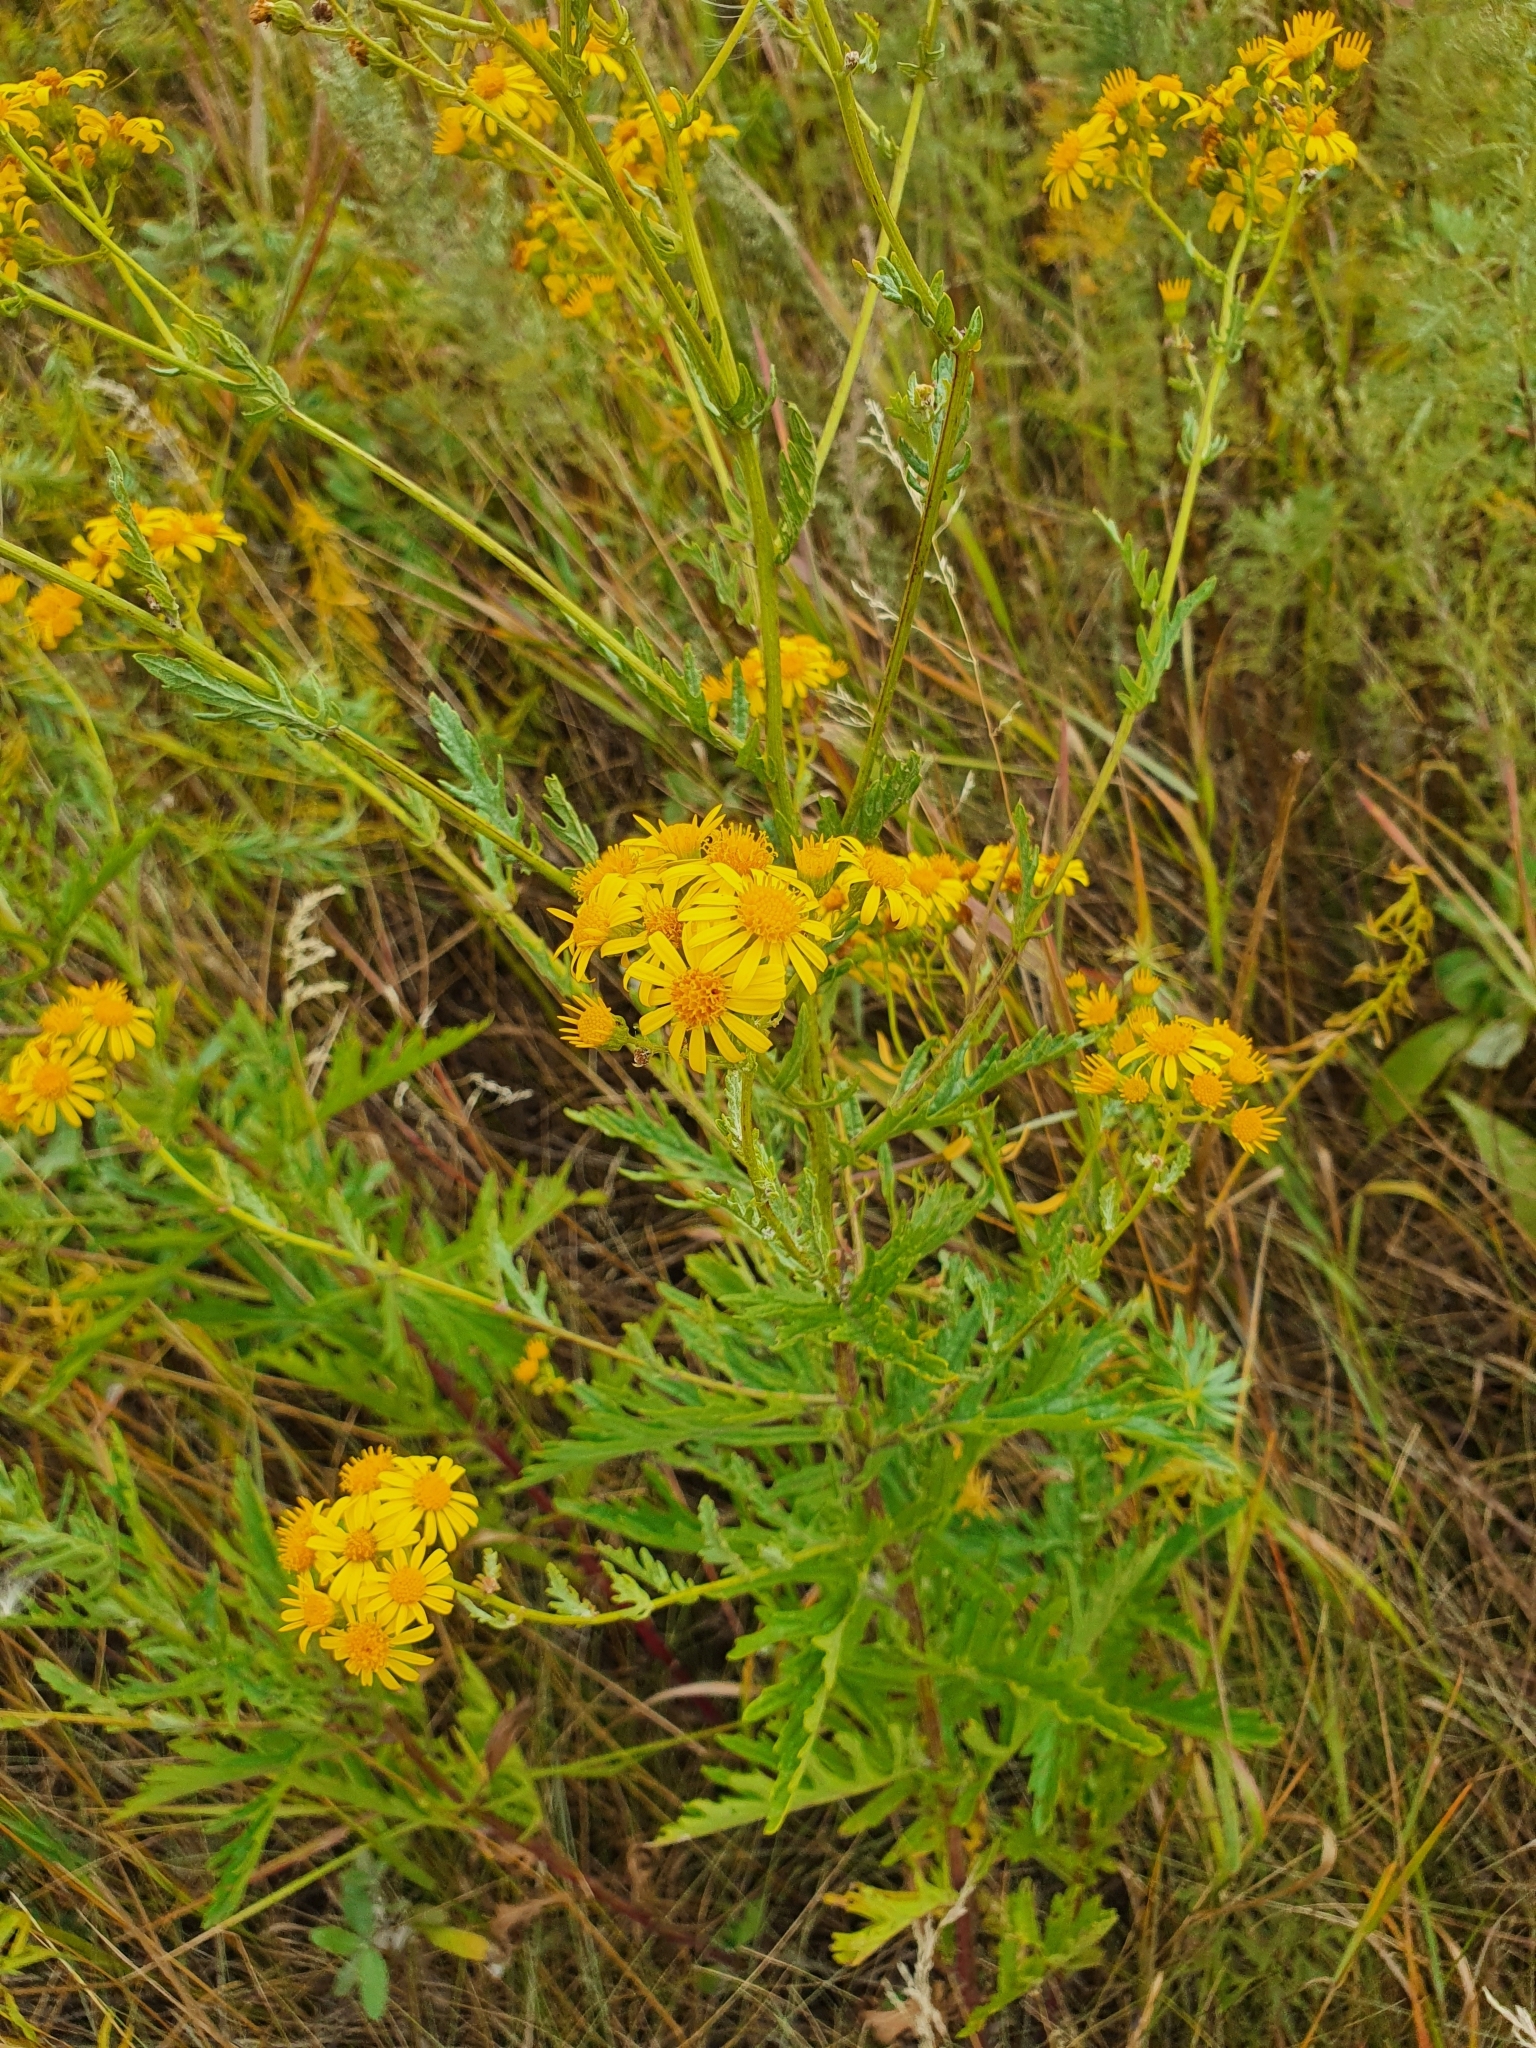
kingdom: Plantae
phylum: Tracheophyta
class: Magnoliopsida
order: Asterales
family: Asteraceae
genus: Jacobaea
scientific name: Jacobaea erucifolia
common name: Hoary ragwort
